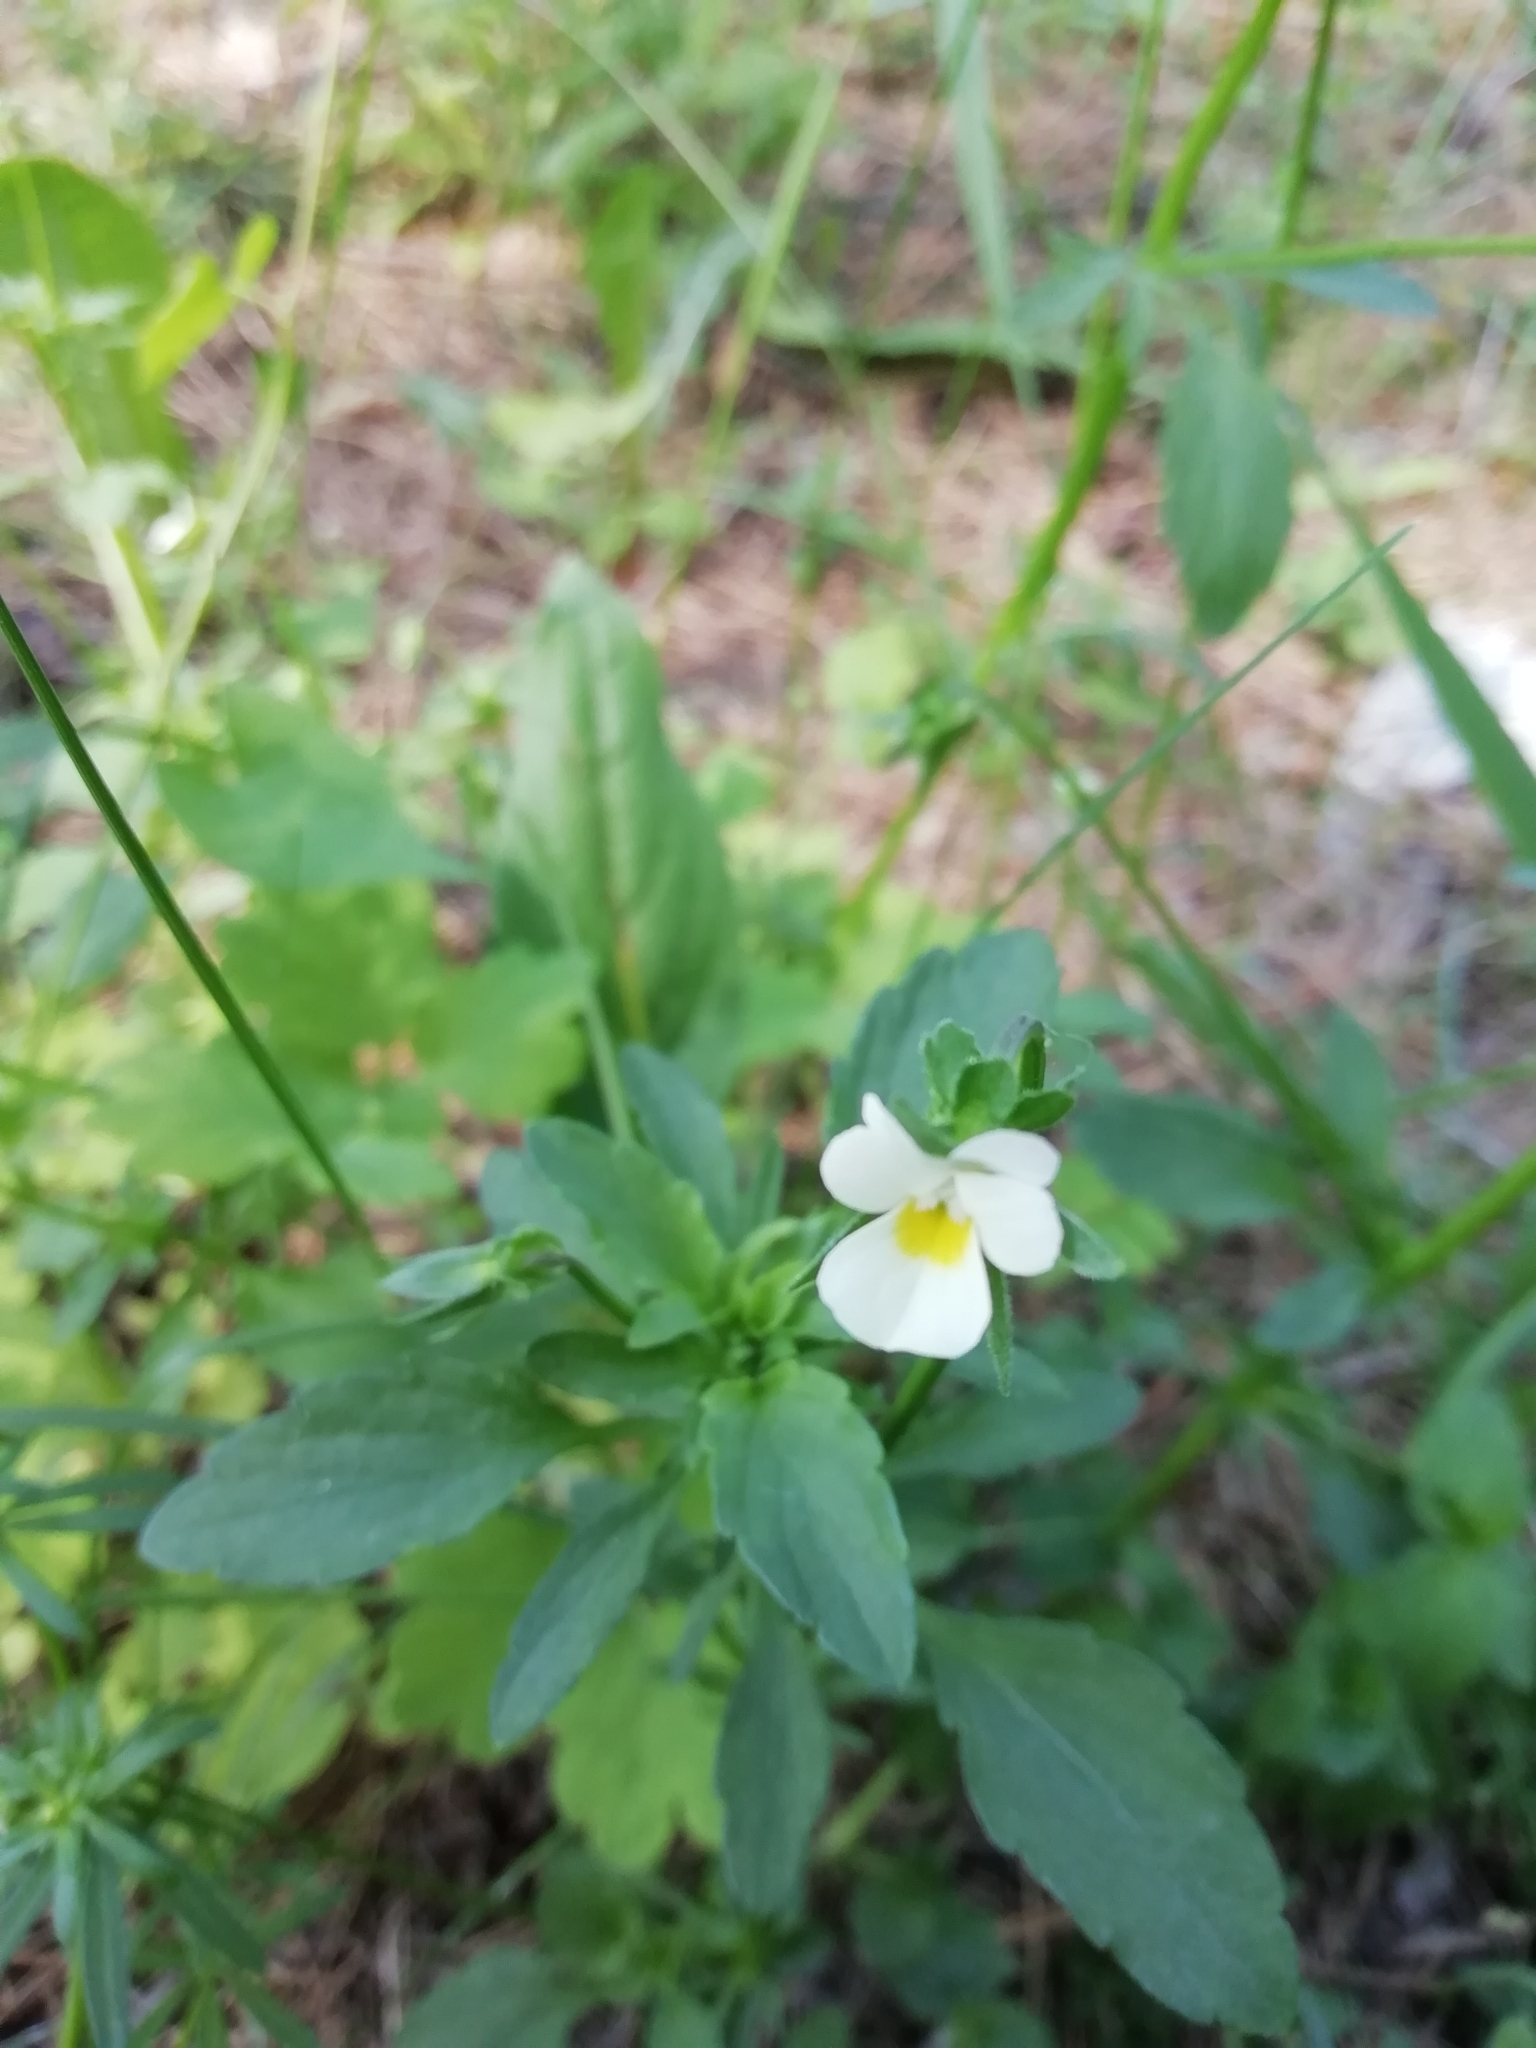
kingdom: Plantae
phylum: Tracheophyta
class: Magnoliopsida
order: Malpighiales
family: Violaceae
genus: Viola
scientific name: Viola arvensis
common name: Field pansy
